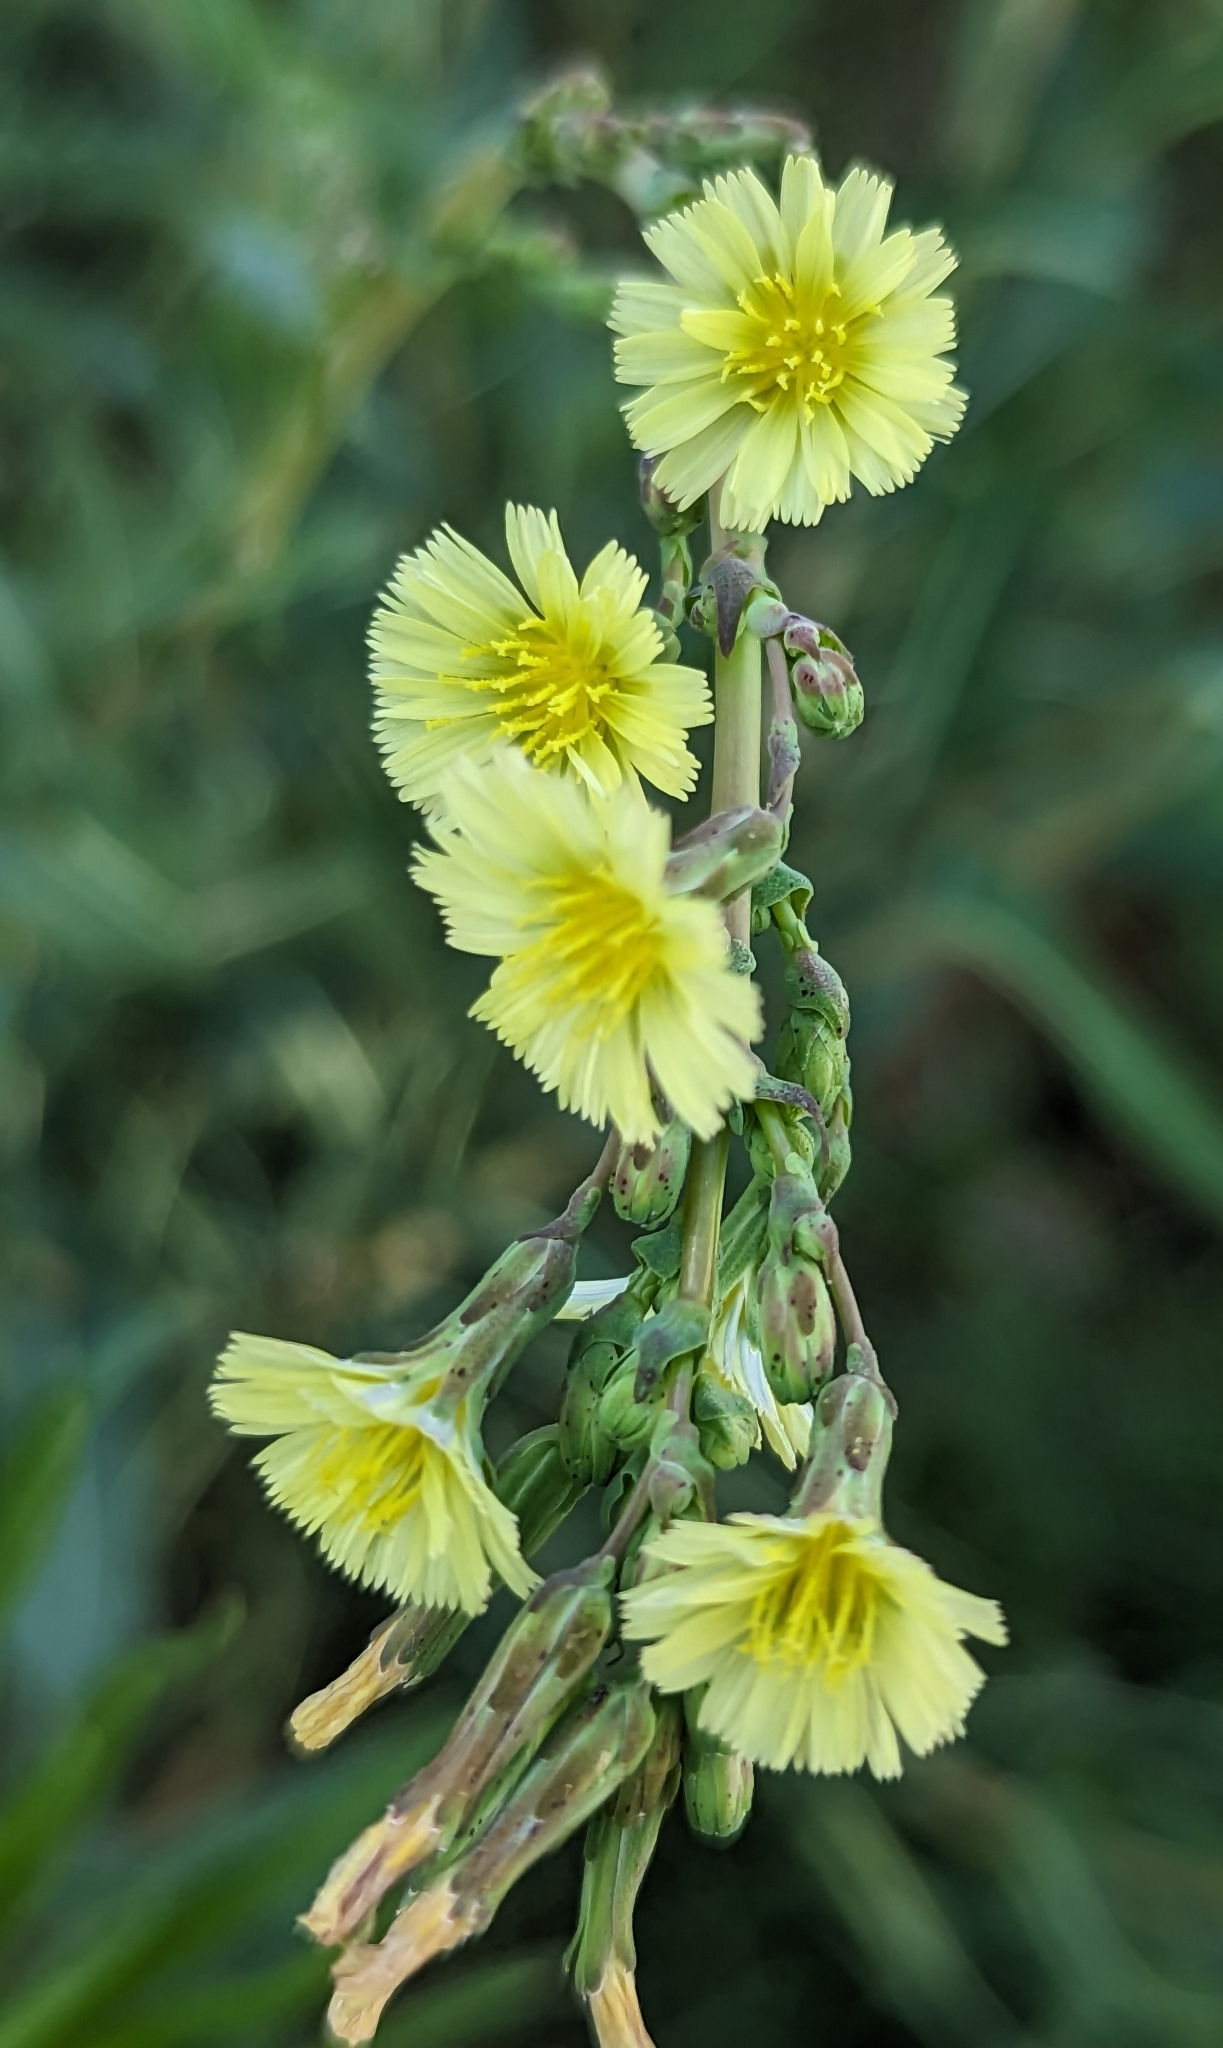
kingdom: Plantae
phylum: Tracheophyta
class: Magnoliopsida
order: Asterales
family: Asteraceae
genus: Lactuca
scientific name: Lactuca serriola
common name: Prickly lettuce
